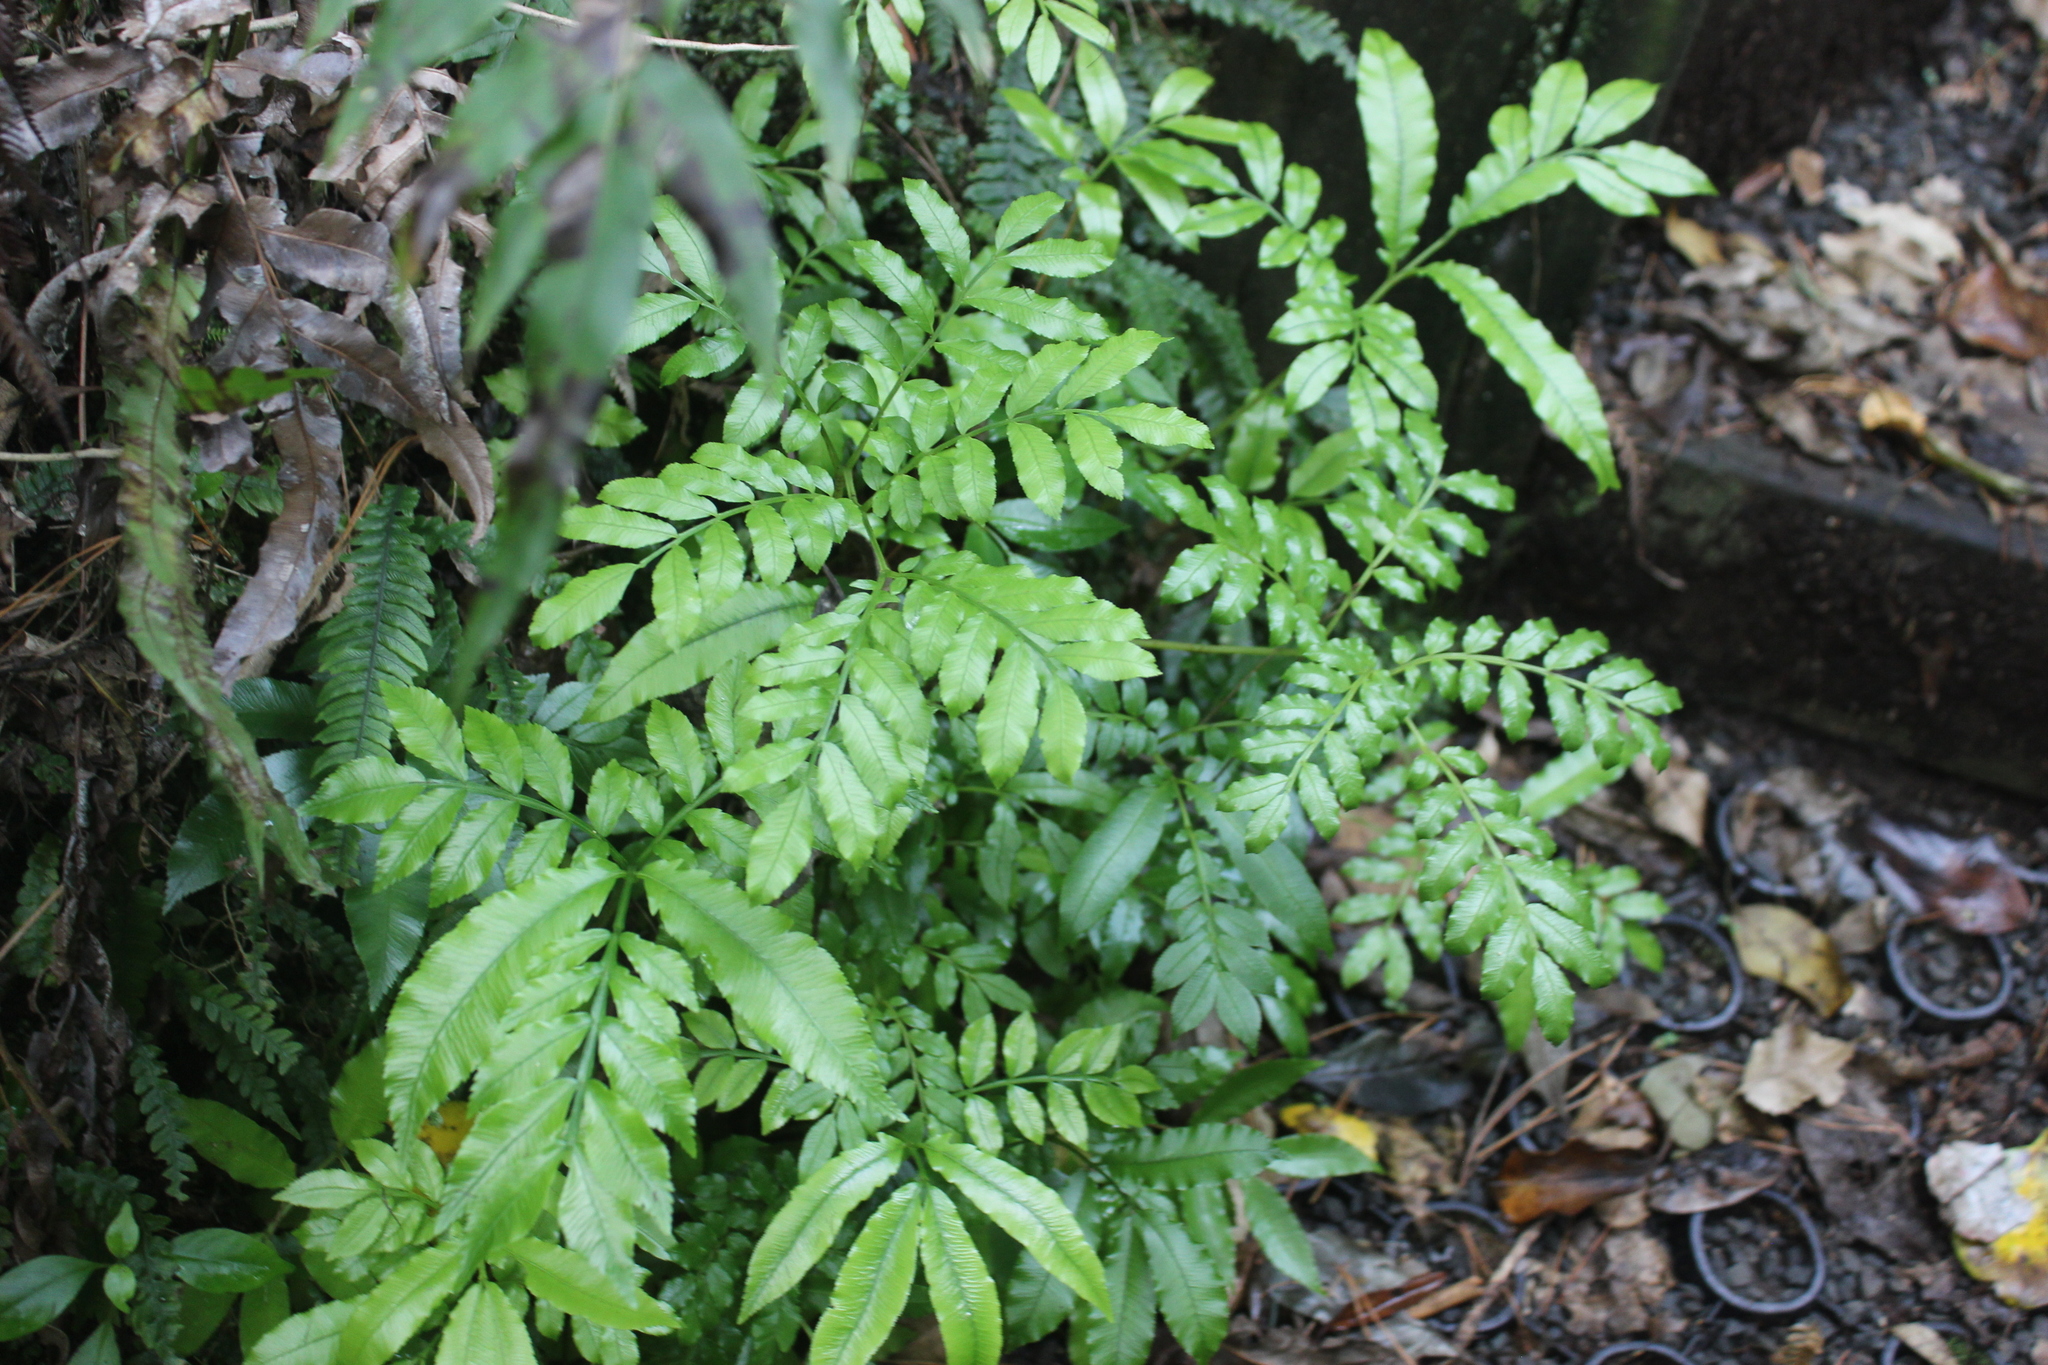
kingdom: Plantae
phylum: Tracheophyta
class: Polypodiopsida
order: Marattiales
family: Marattiaceae
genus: Ptisana
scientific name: Ptisana salicina
